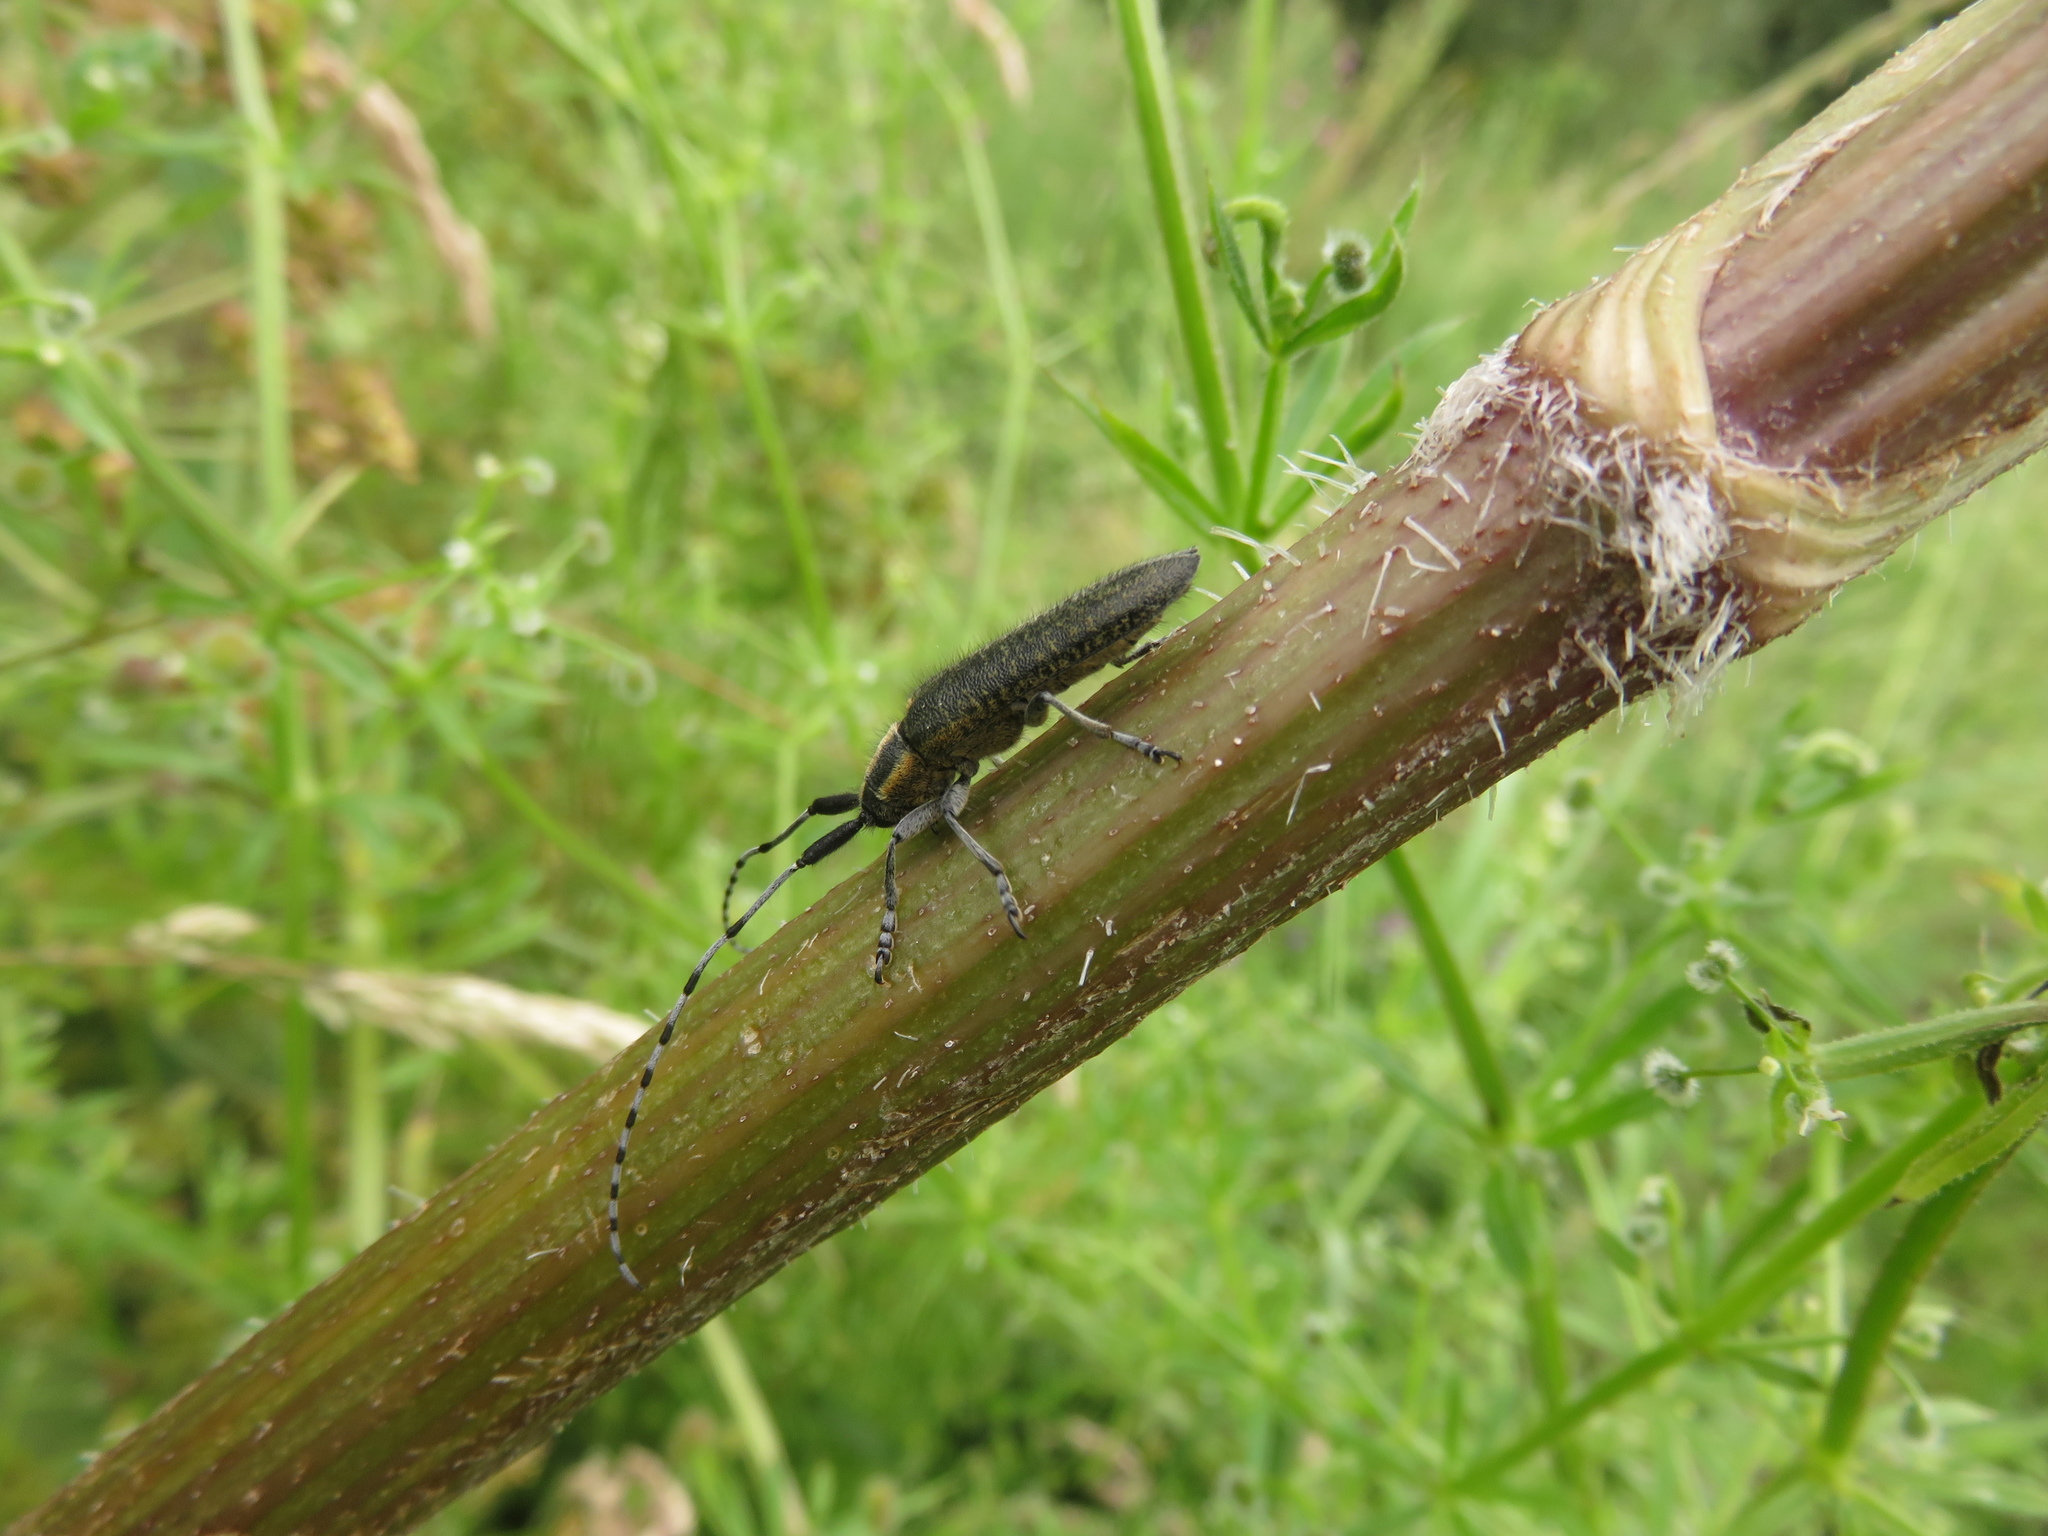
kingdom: Animalia
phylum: Arthropoda
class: Insecta
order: Coleoptera
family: Cerambycidae
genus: Agapanthia
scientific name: Agapanthia villosoviridescens
